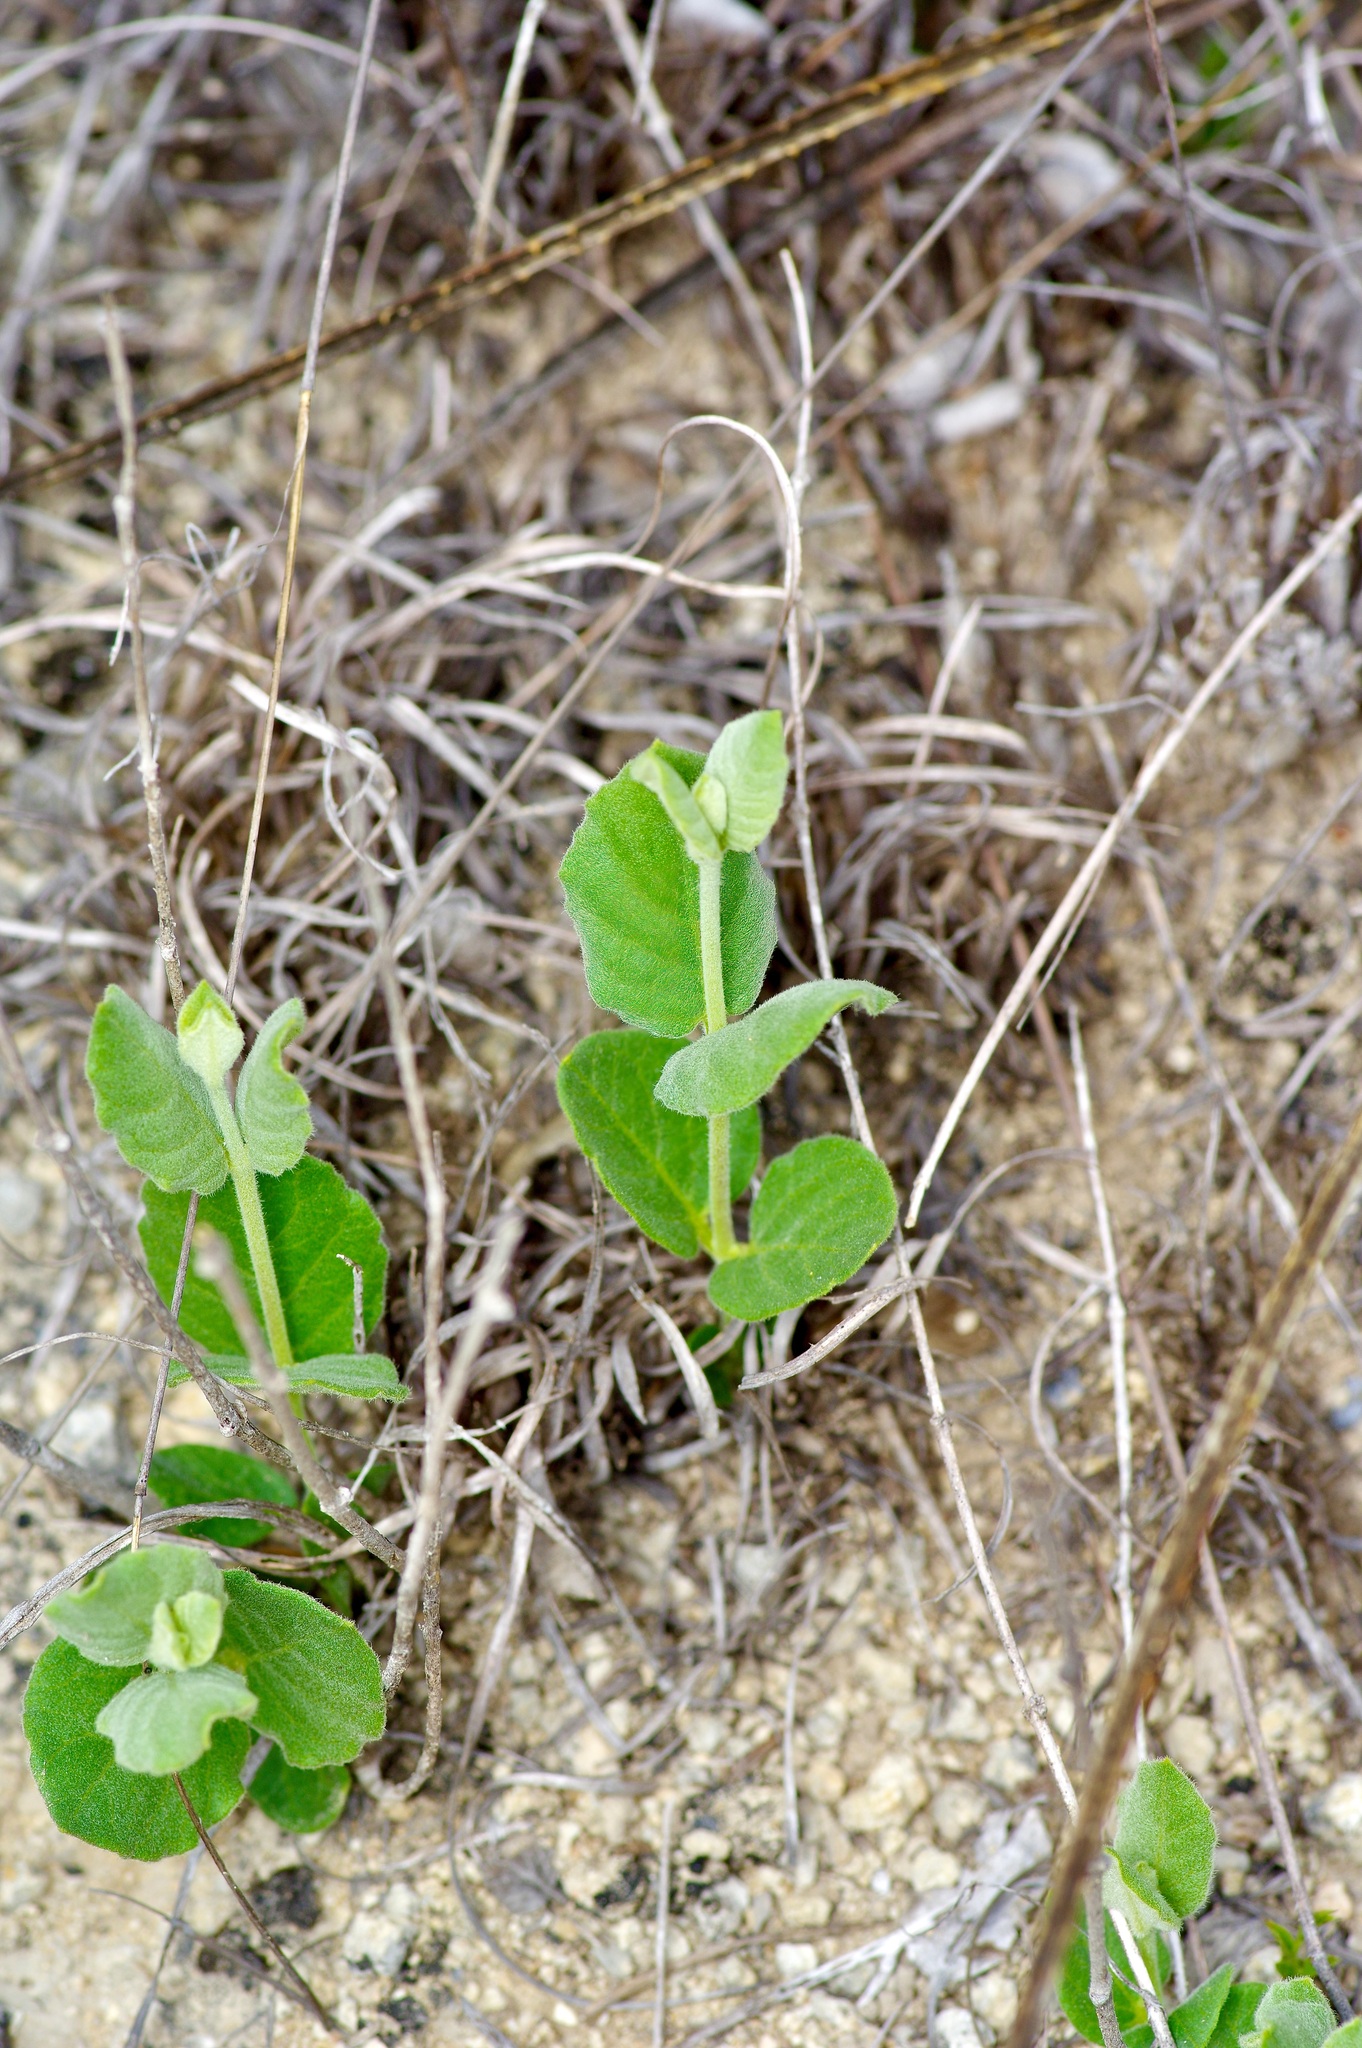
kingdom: Plantae
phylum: Tracheophyta
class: Magnoliopsida
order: Gentianales
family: Apocynaceae
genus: Mandevilla
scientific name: Mandevilla macrosiphon
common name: Plateau rocktrumpet
